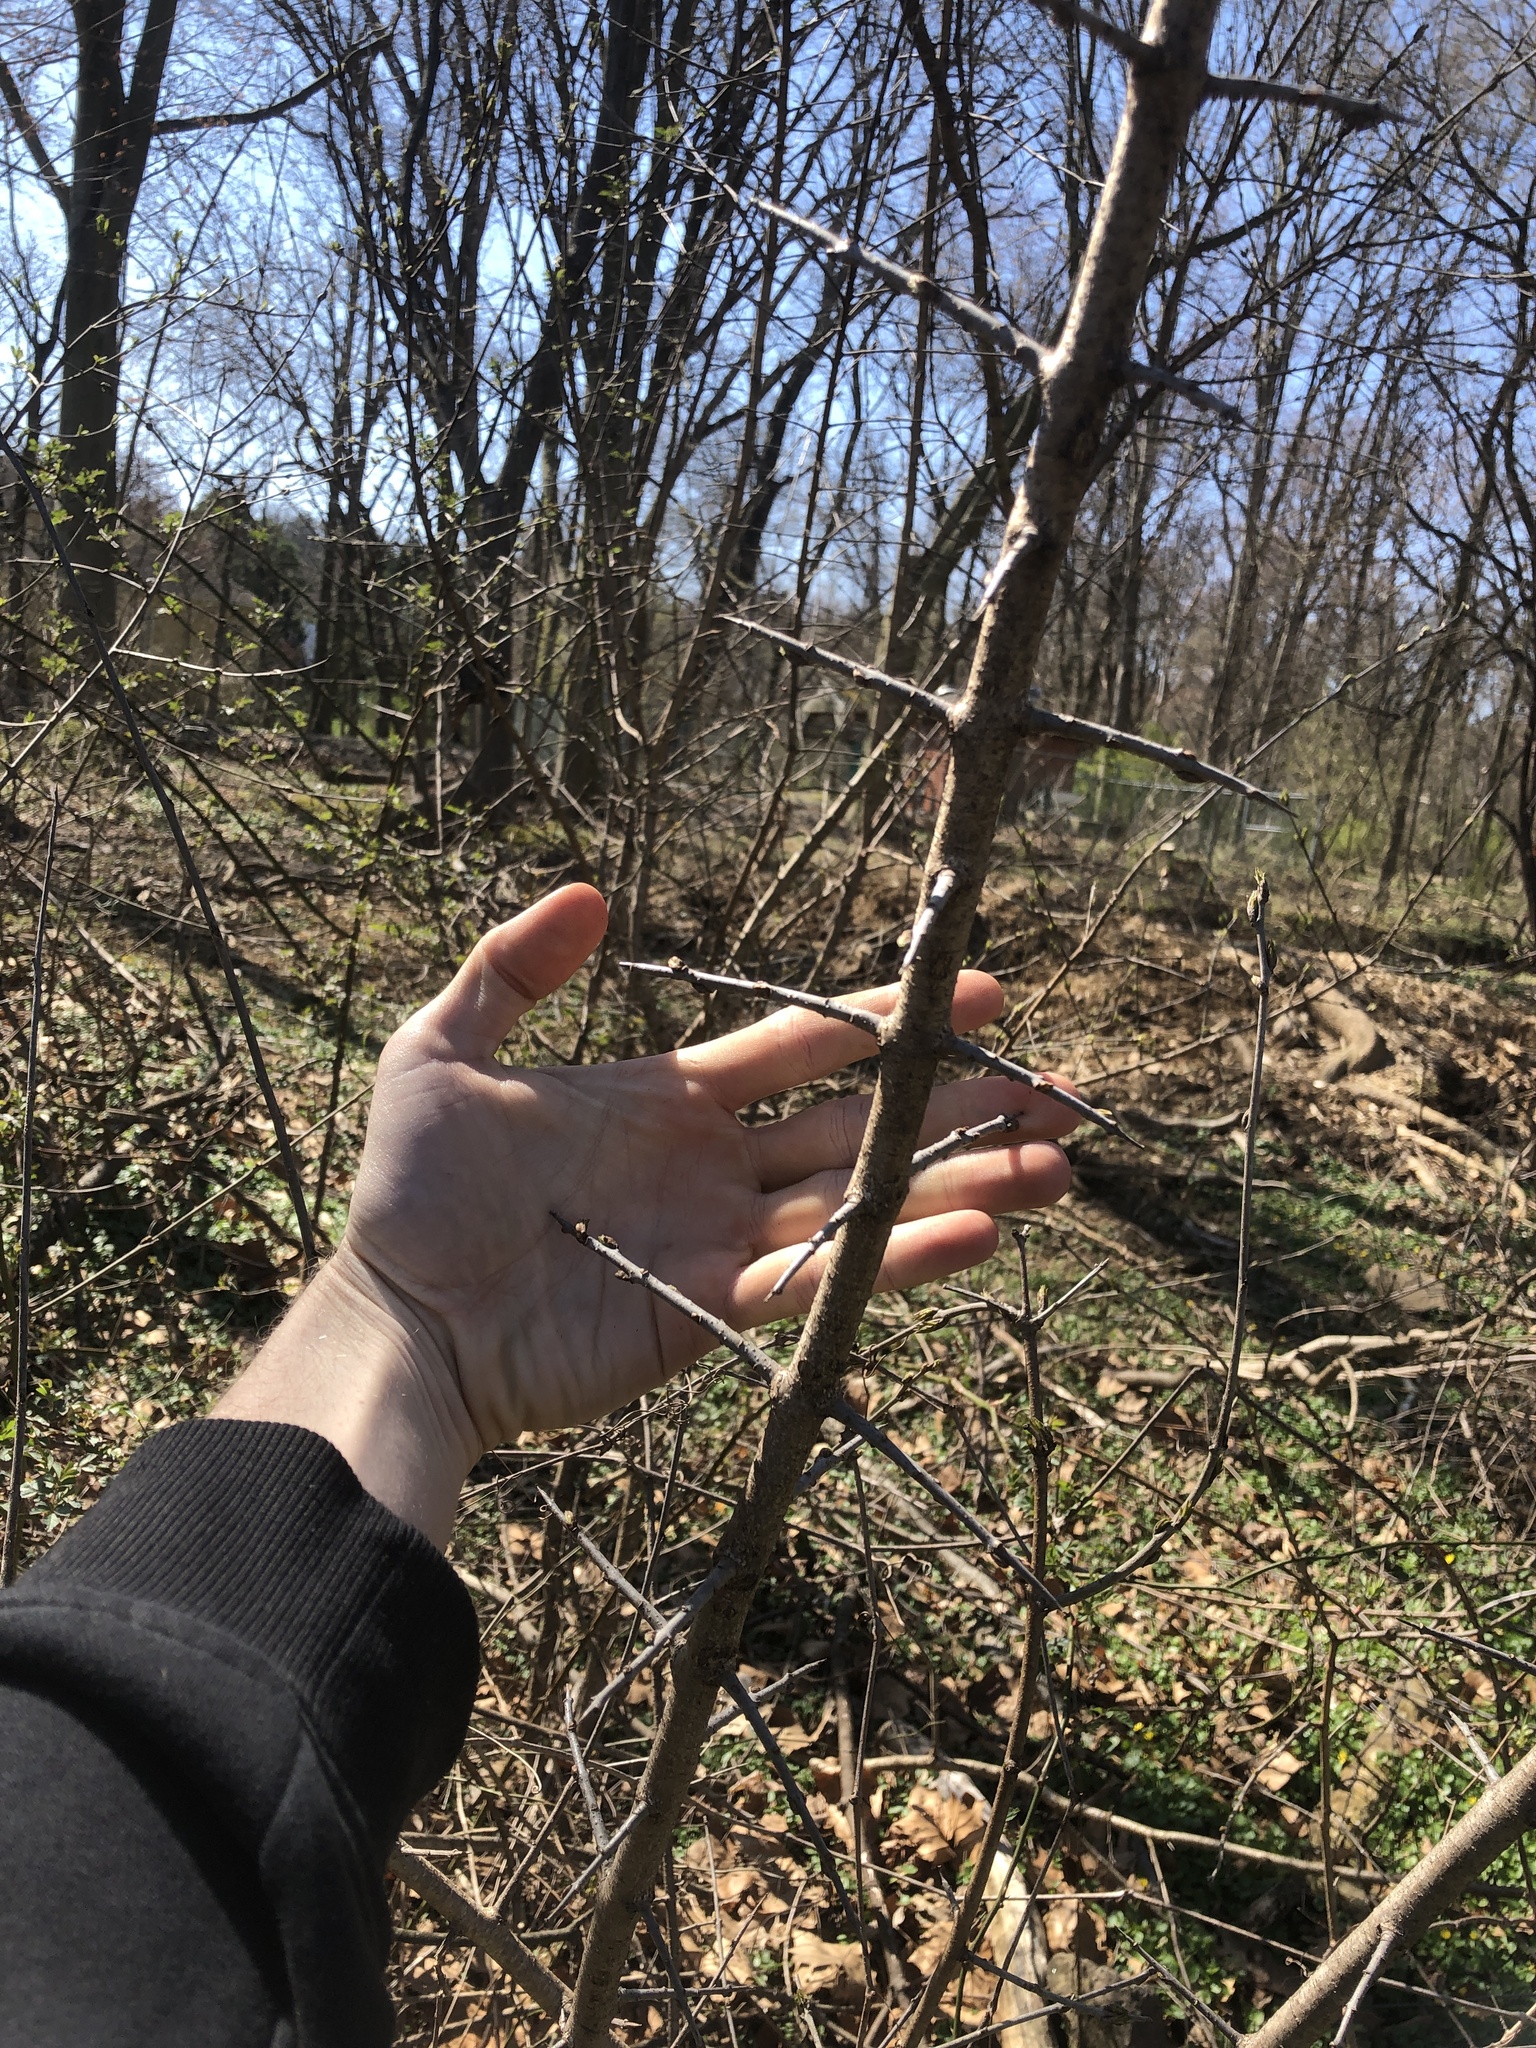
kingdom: Plantae
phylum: Tracheophyta
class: Magnoliopsida
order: Rosales
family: Rhamnaceae
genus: Rhamnus
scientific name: Rhamnus cathartica
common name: Common buckthorn
